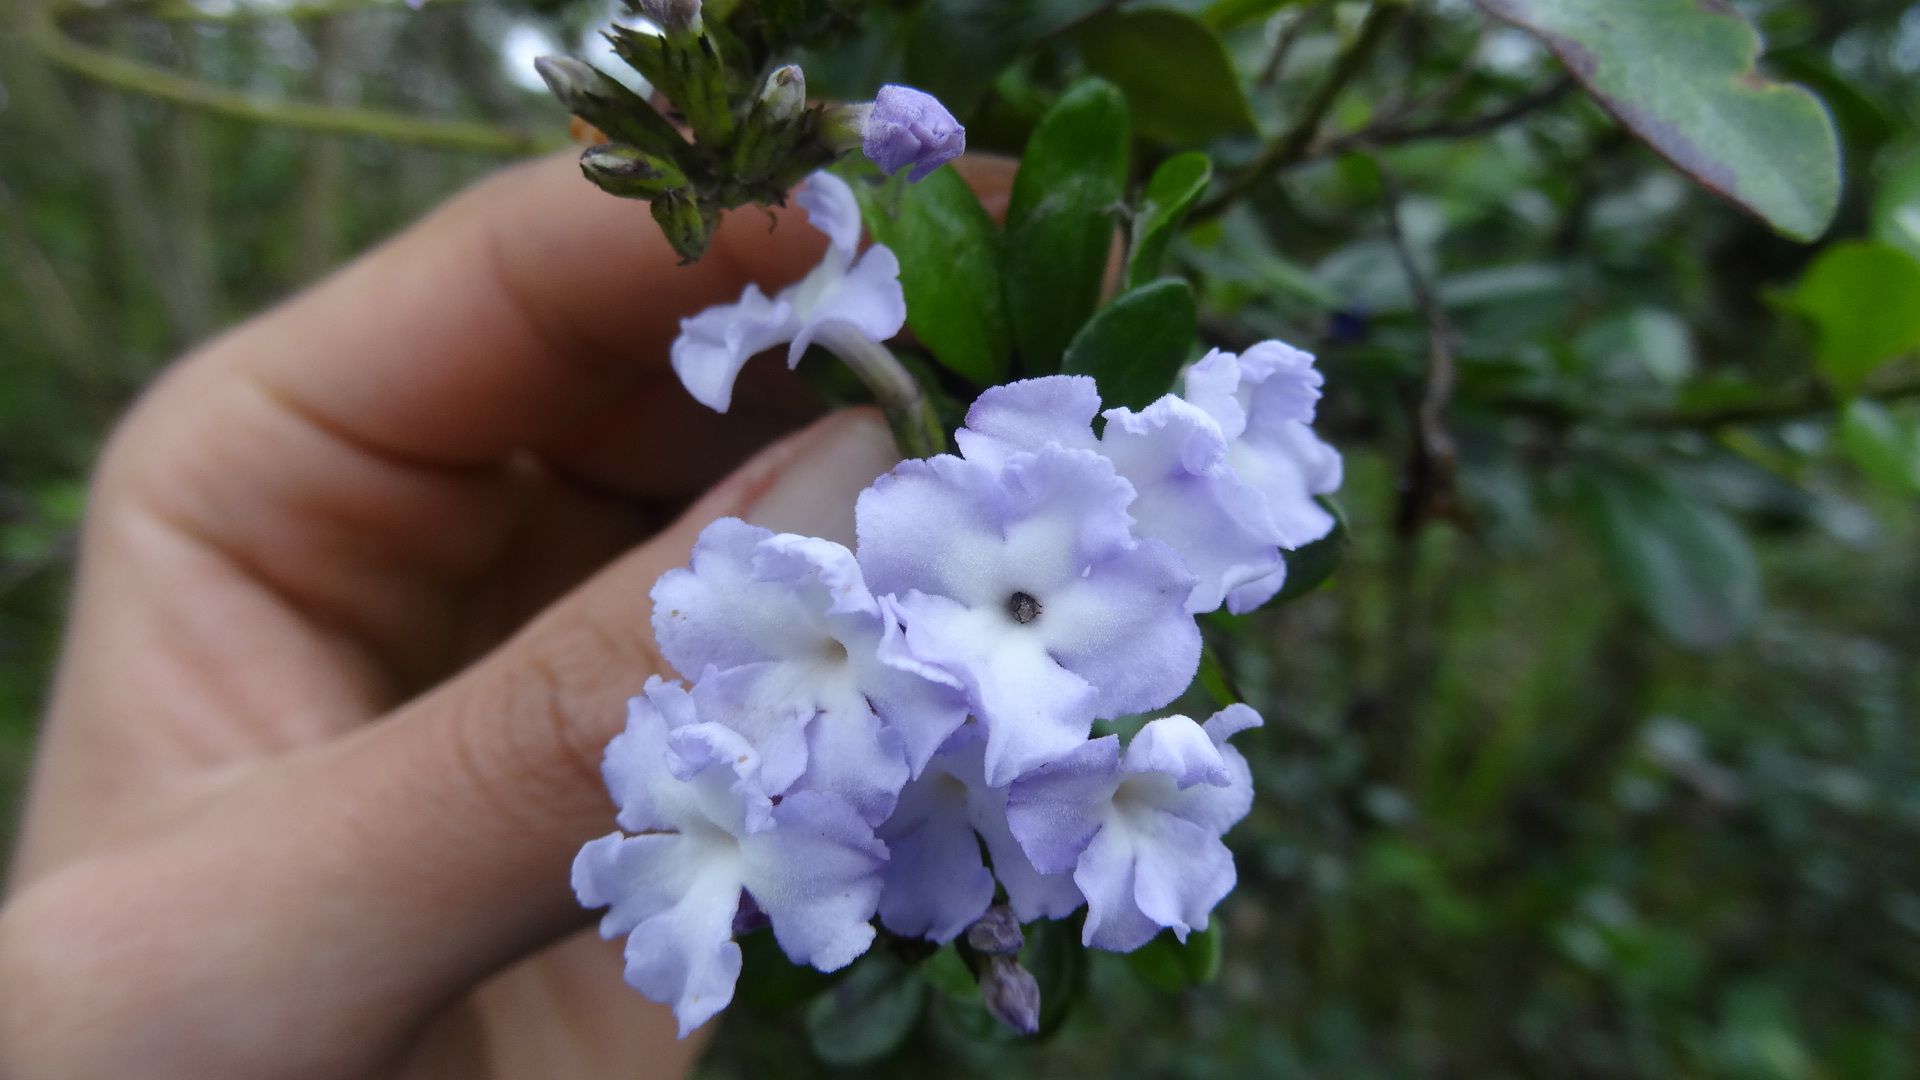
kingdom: Plantae
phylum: Tracheophyta
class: Magnoliopsida
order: Lamiales
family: Verbenaceae
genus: Duranta
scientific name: Duranta triacantha
